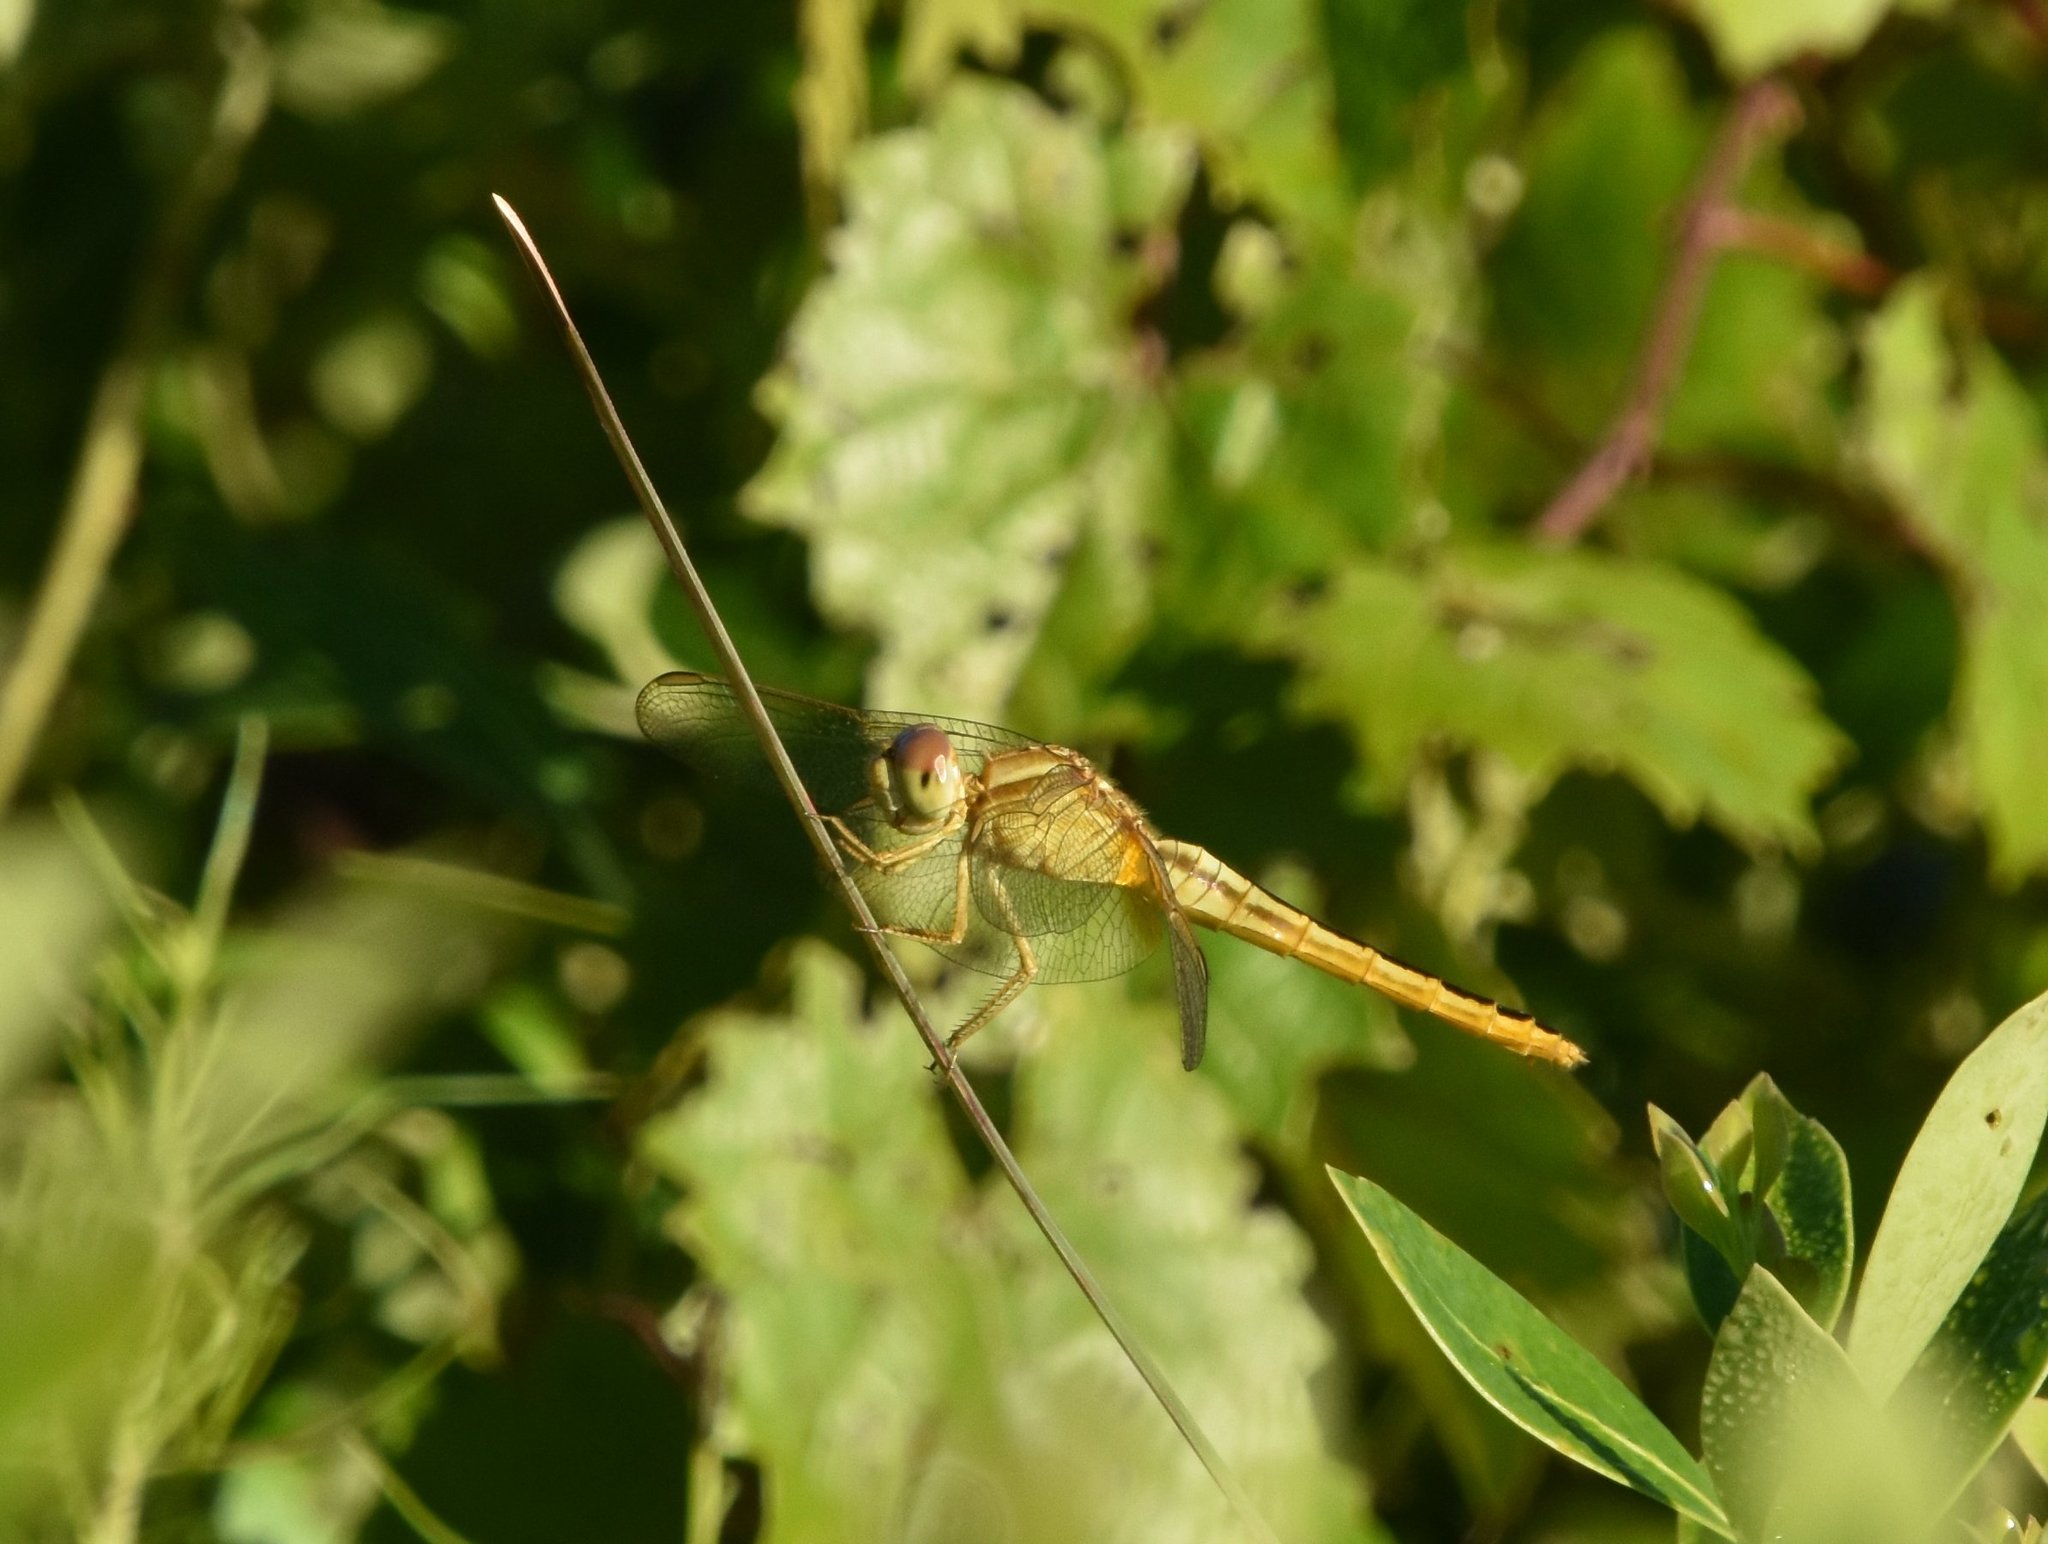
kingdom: Animalia
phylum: Arthropoda
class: Insecta
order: Odonata
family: Libellulidae
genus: Crocothemis
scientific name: Crocothemis servilia
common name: Scarlet skimmer
